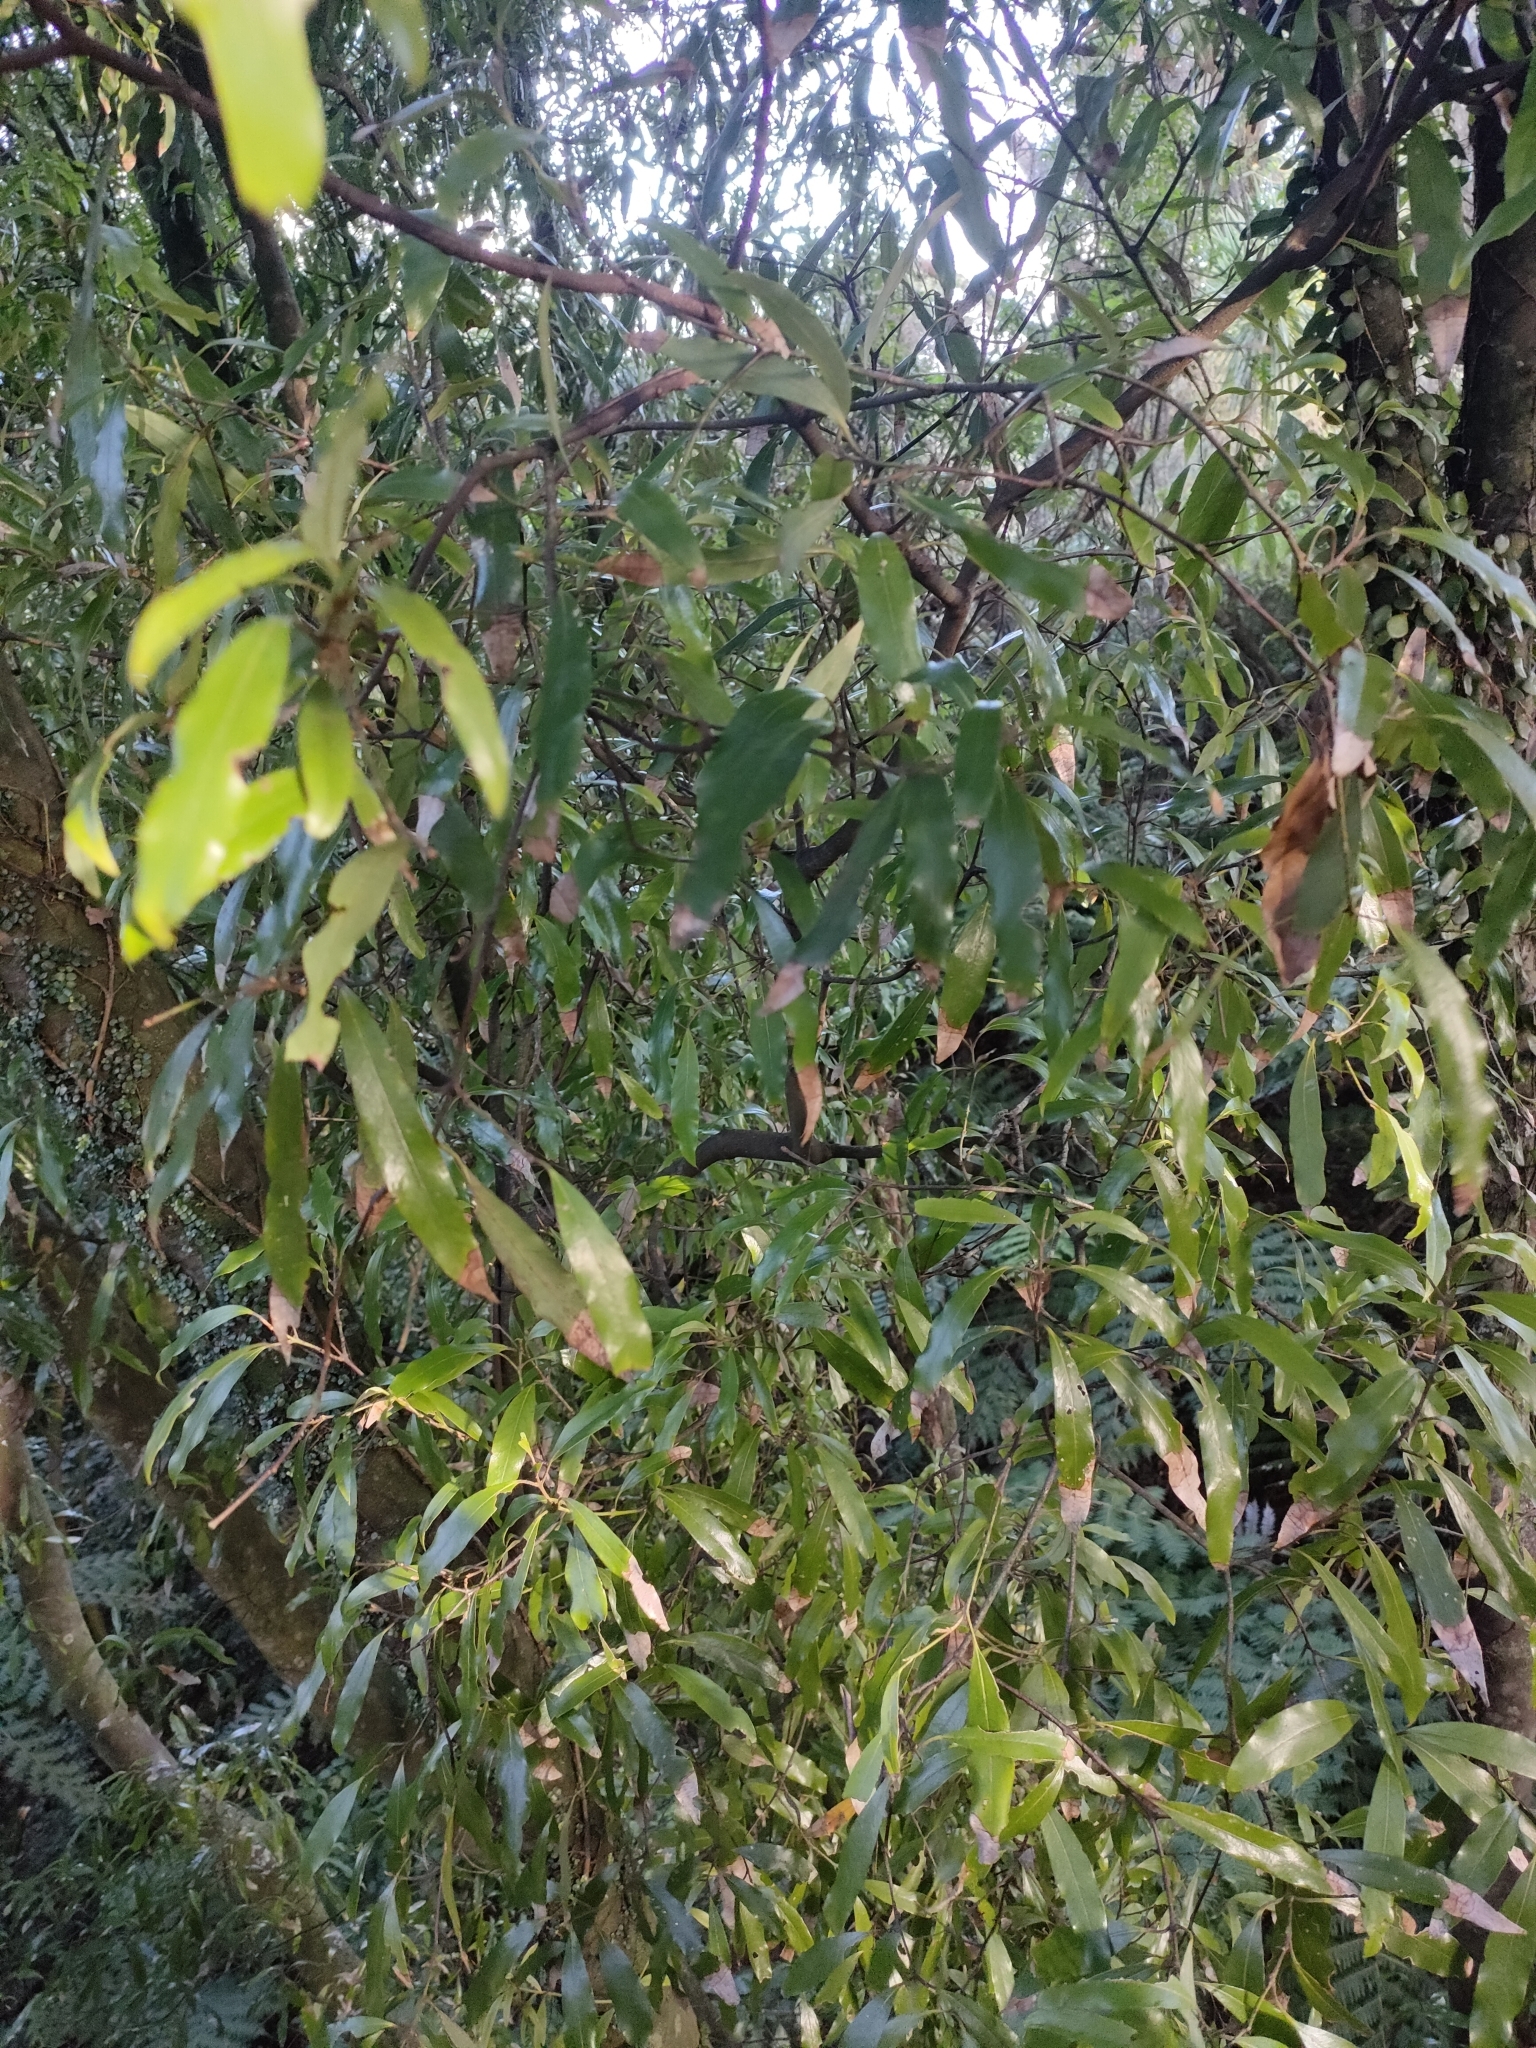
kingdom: Plantae
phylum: Tracheophyta
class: Magnoliopsida
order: Laurales
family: Lauraceae
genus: Beilschmiedia
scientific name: Beilschmiedia tawa
